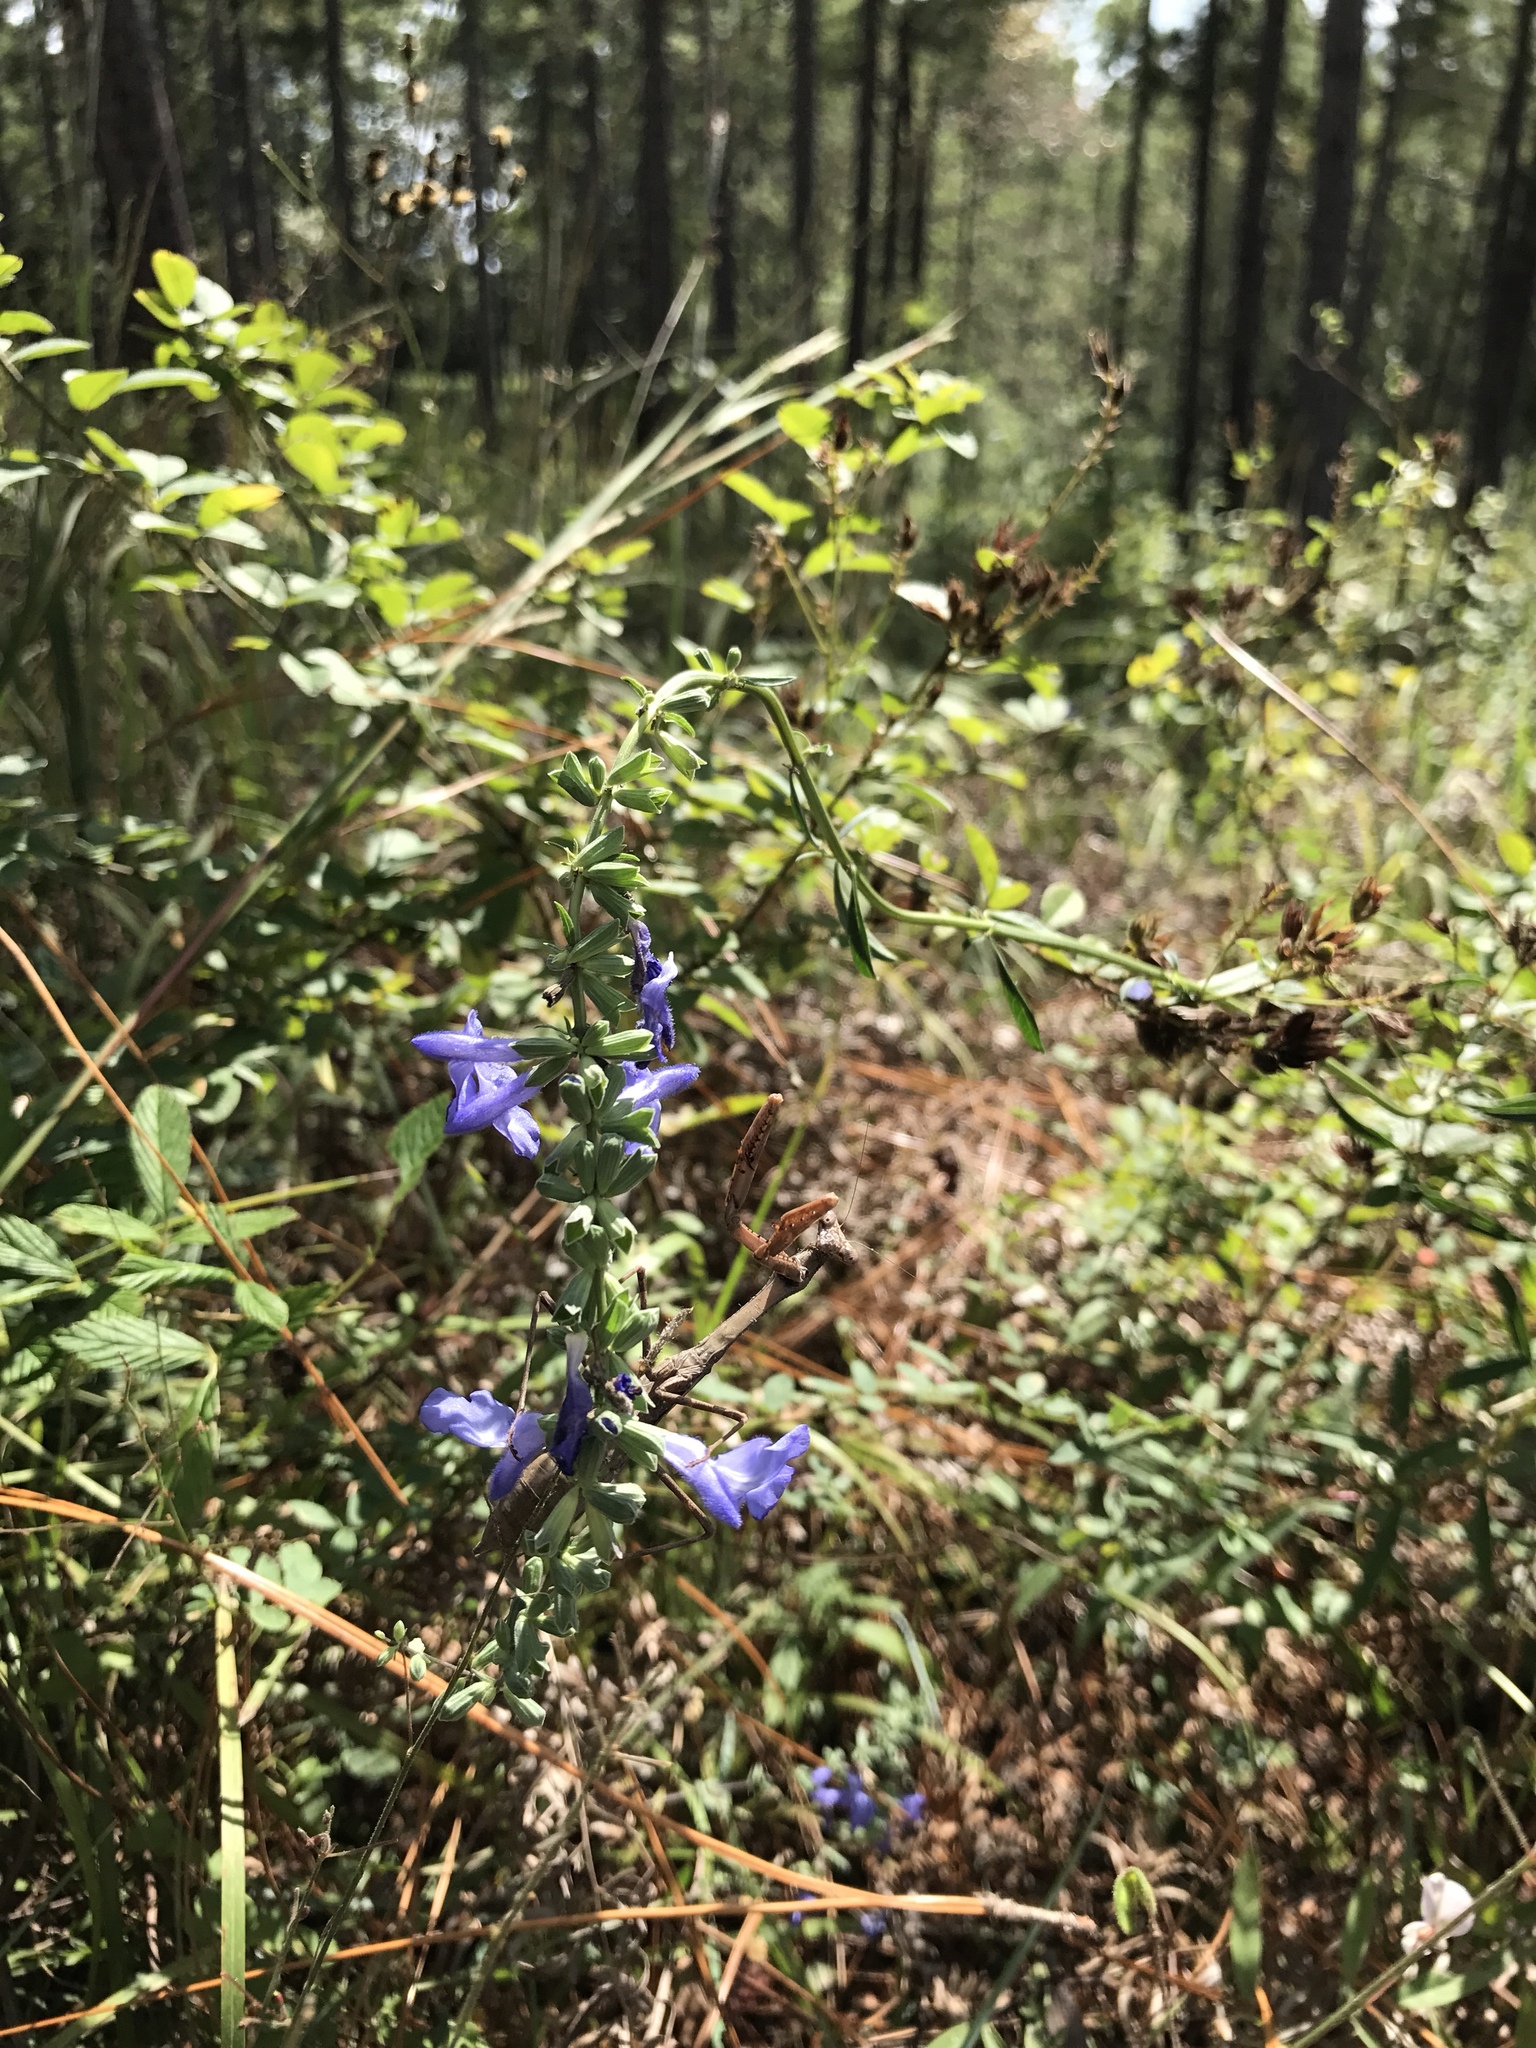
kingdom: Plantae
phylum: Tracheophyta
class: Magnoliopsida
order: Lamiales
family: Lamiaceae
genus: Salvia
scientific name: Salvia azurea
